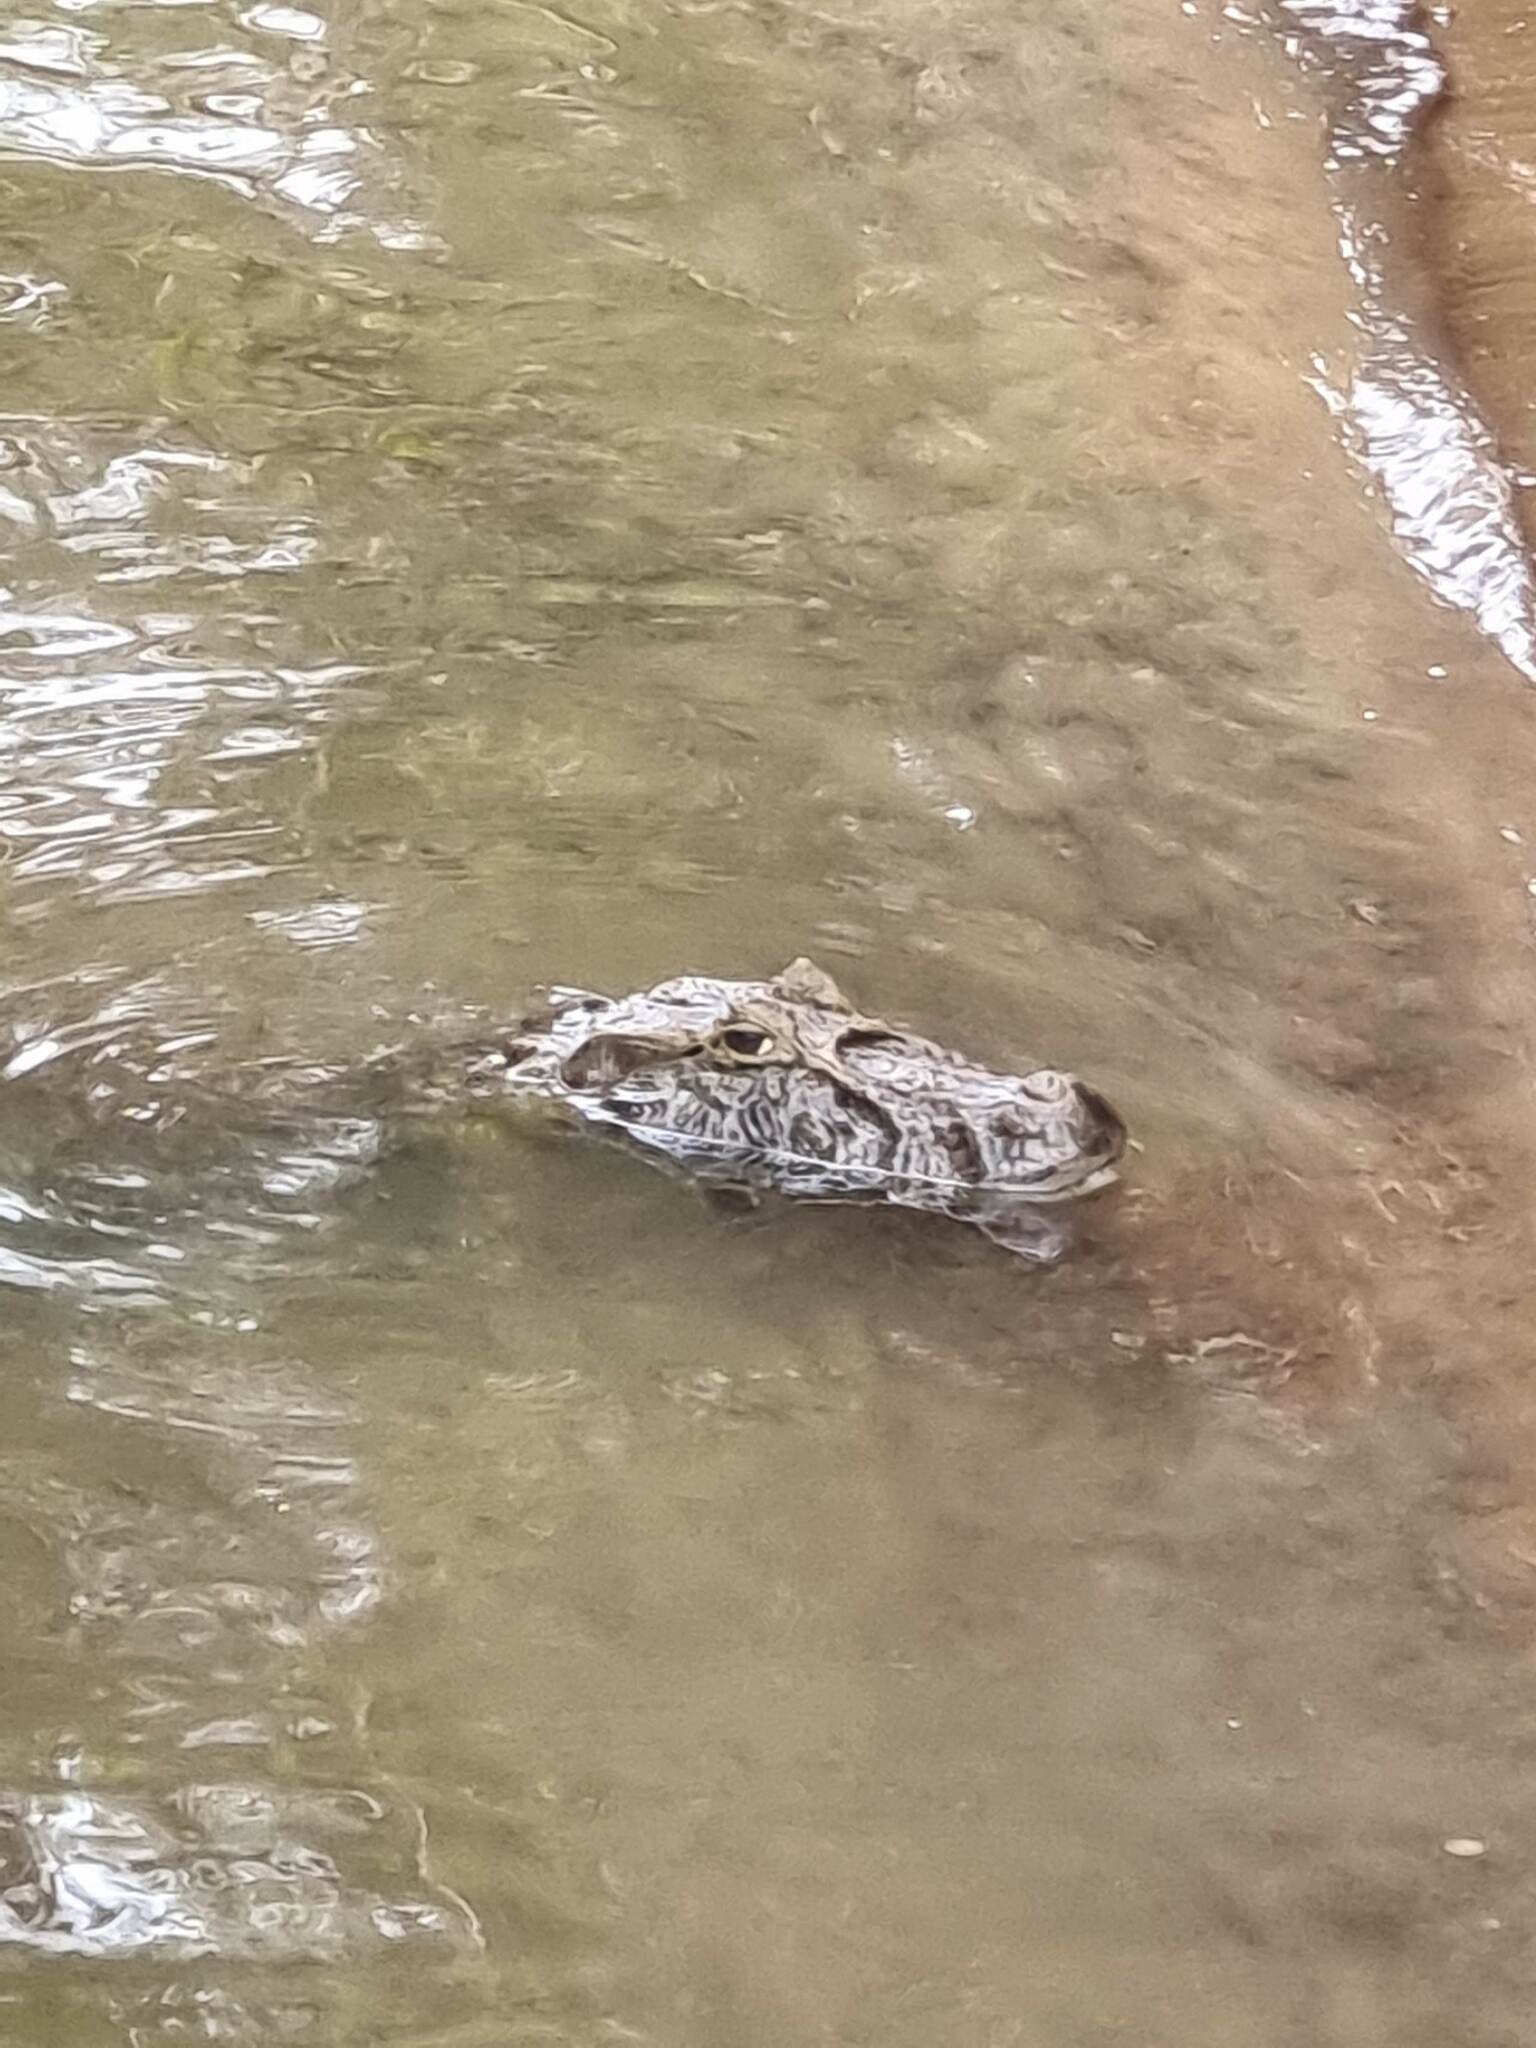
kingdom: Animalia
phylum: Chordata
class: Crocodylia
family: Alligatoridae
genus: Caiman
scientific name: Caiman latirostris
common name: Broad-snouted caiman
